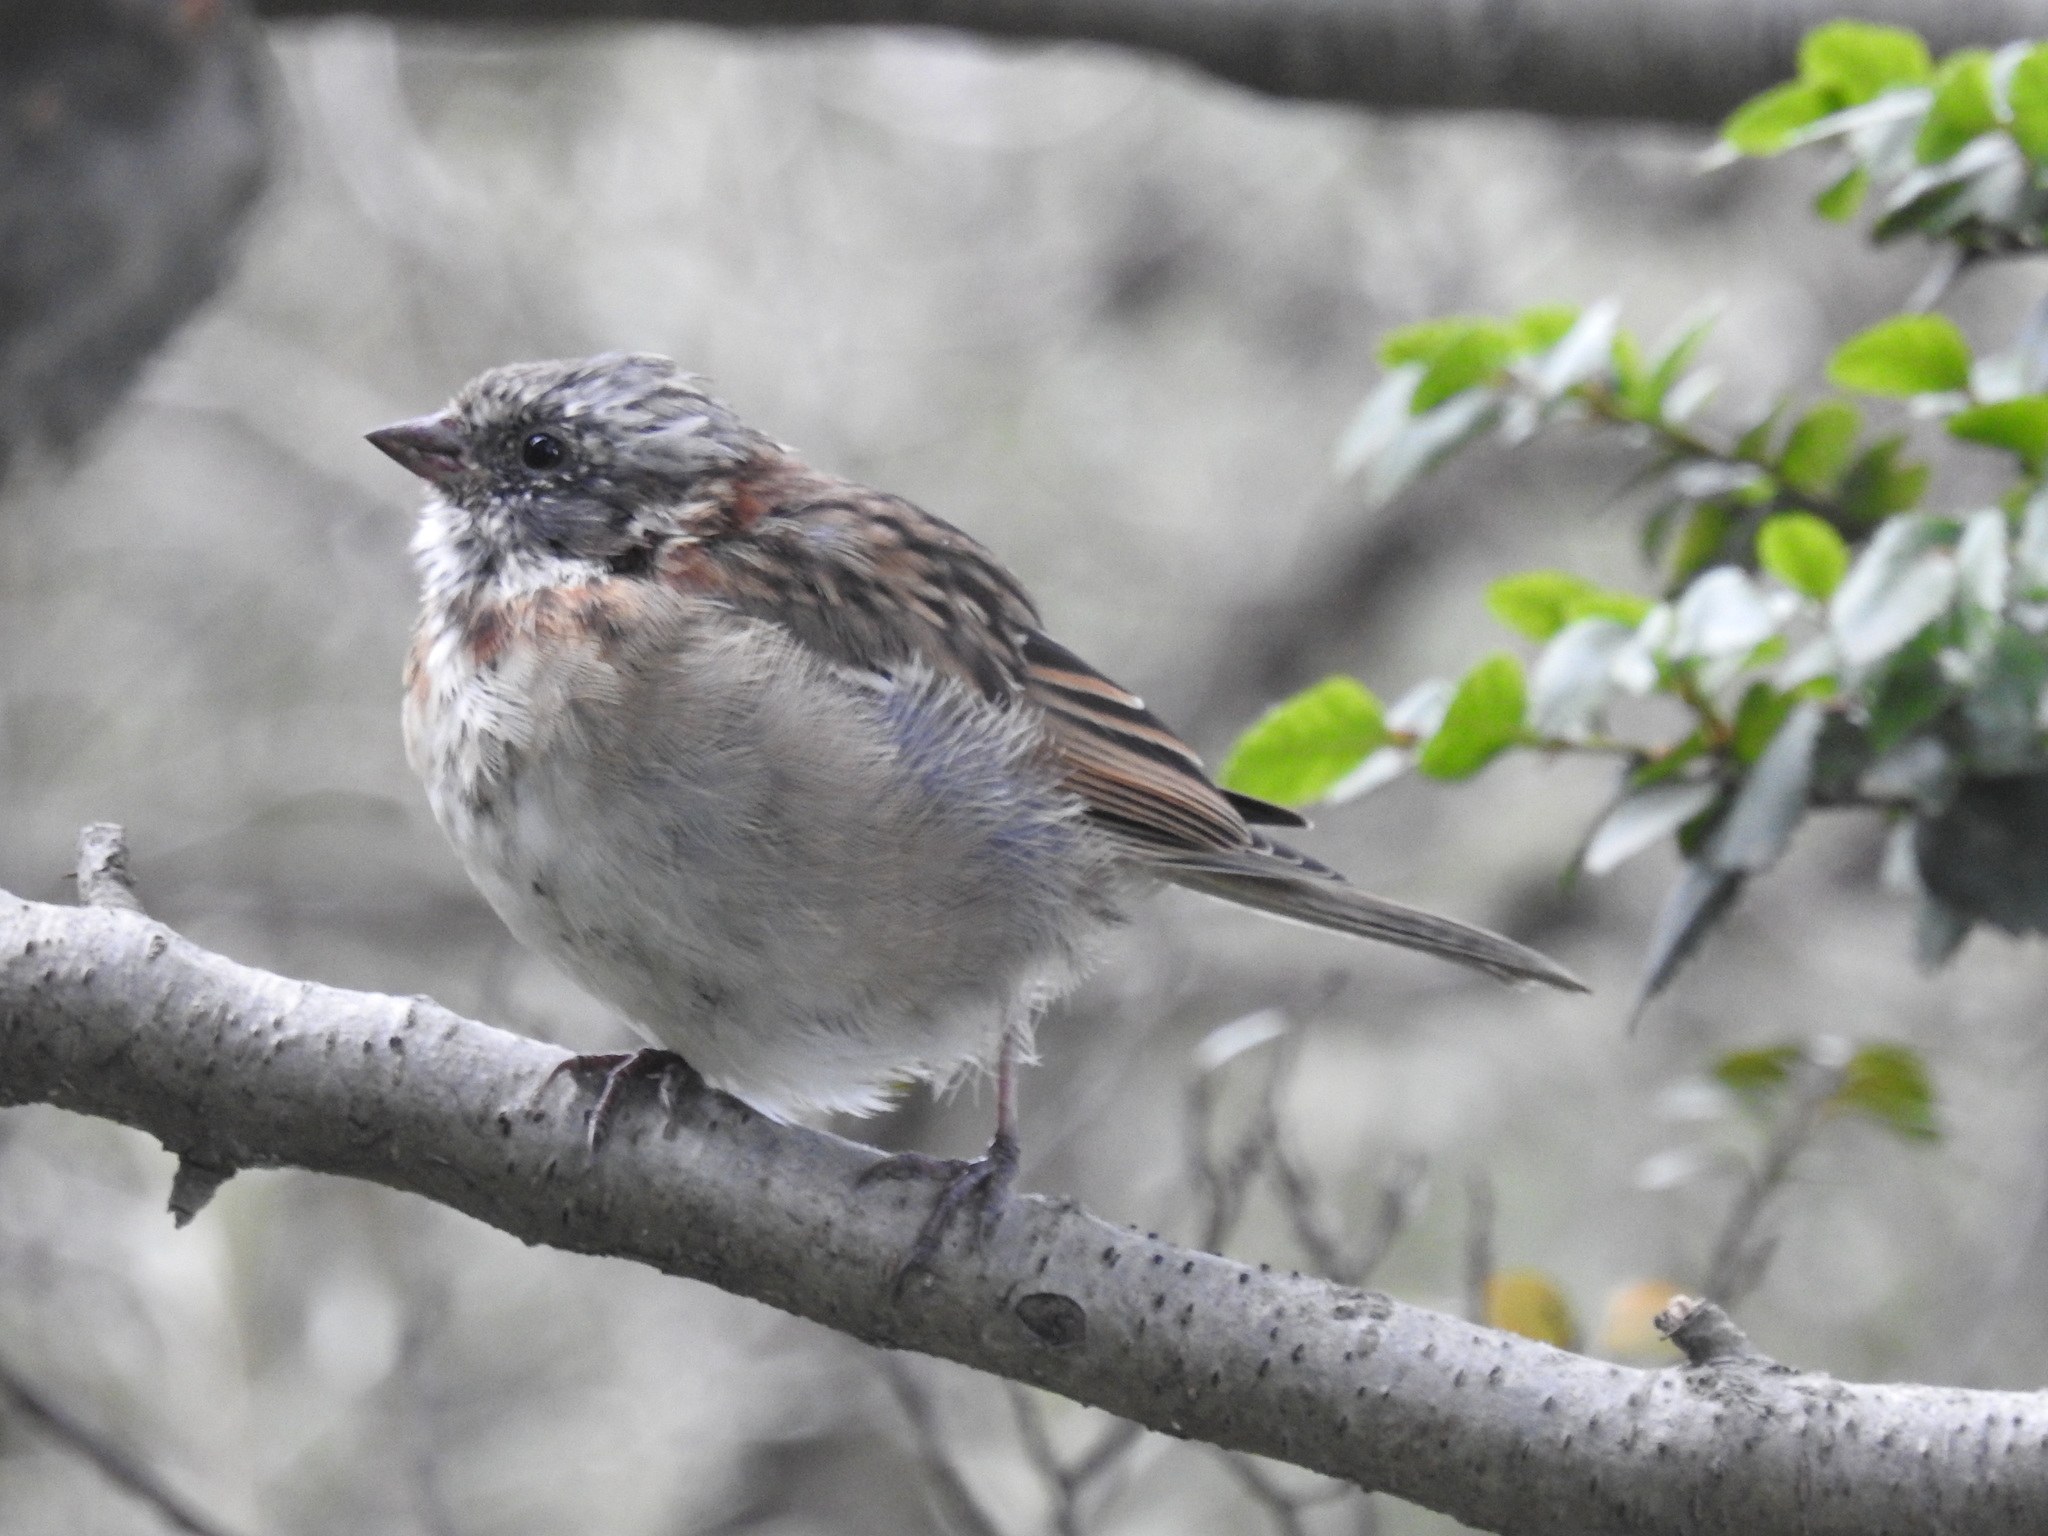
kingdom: Animalia
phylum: Chordata
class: Aves
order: Passeriformes
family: Passerellidae
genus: Zonotrichia
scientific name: Zonotrichia capensis
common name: Rufous-collared sparrow
